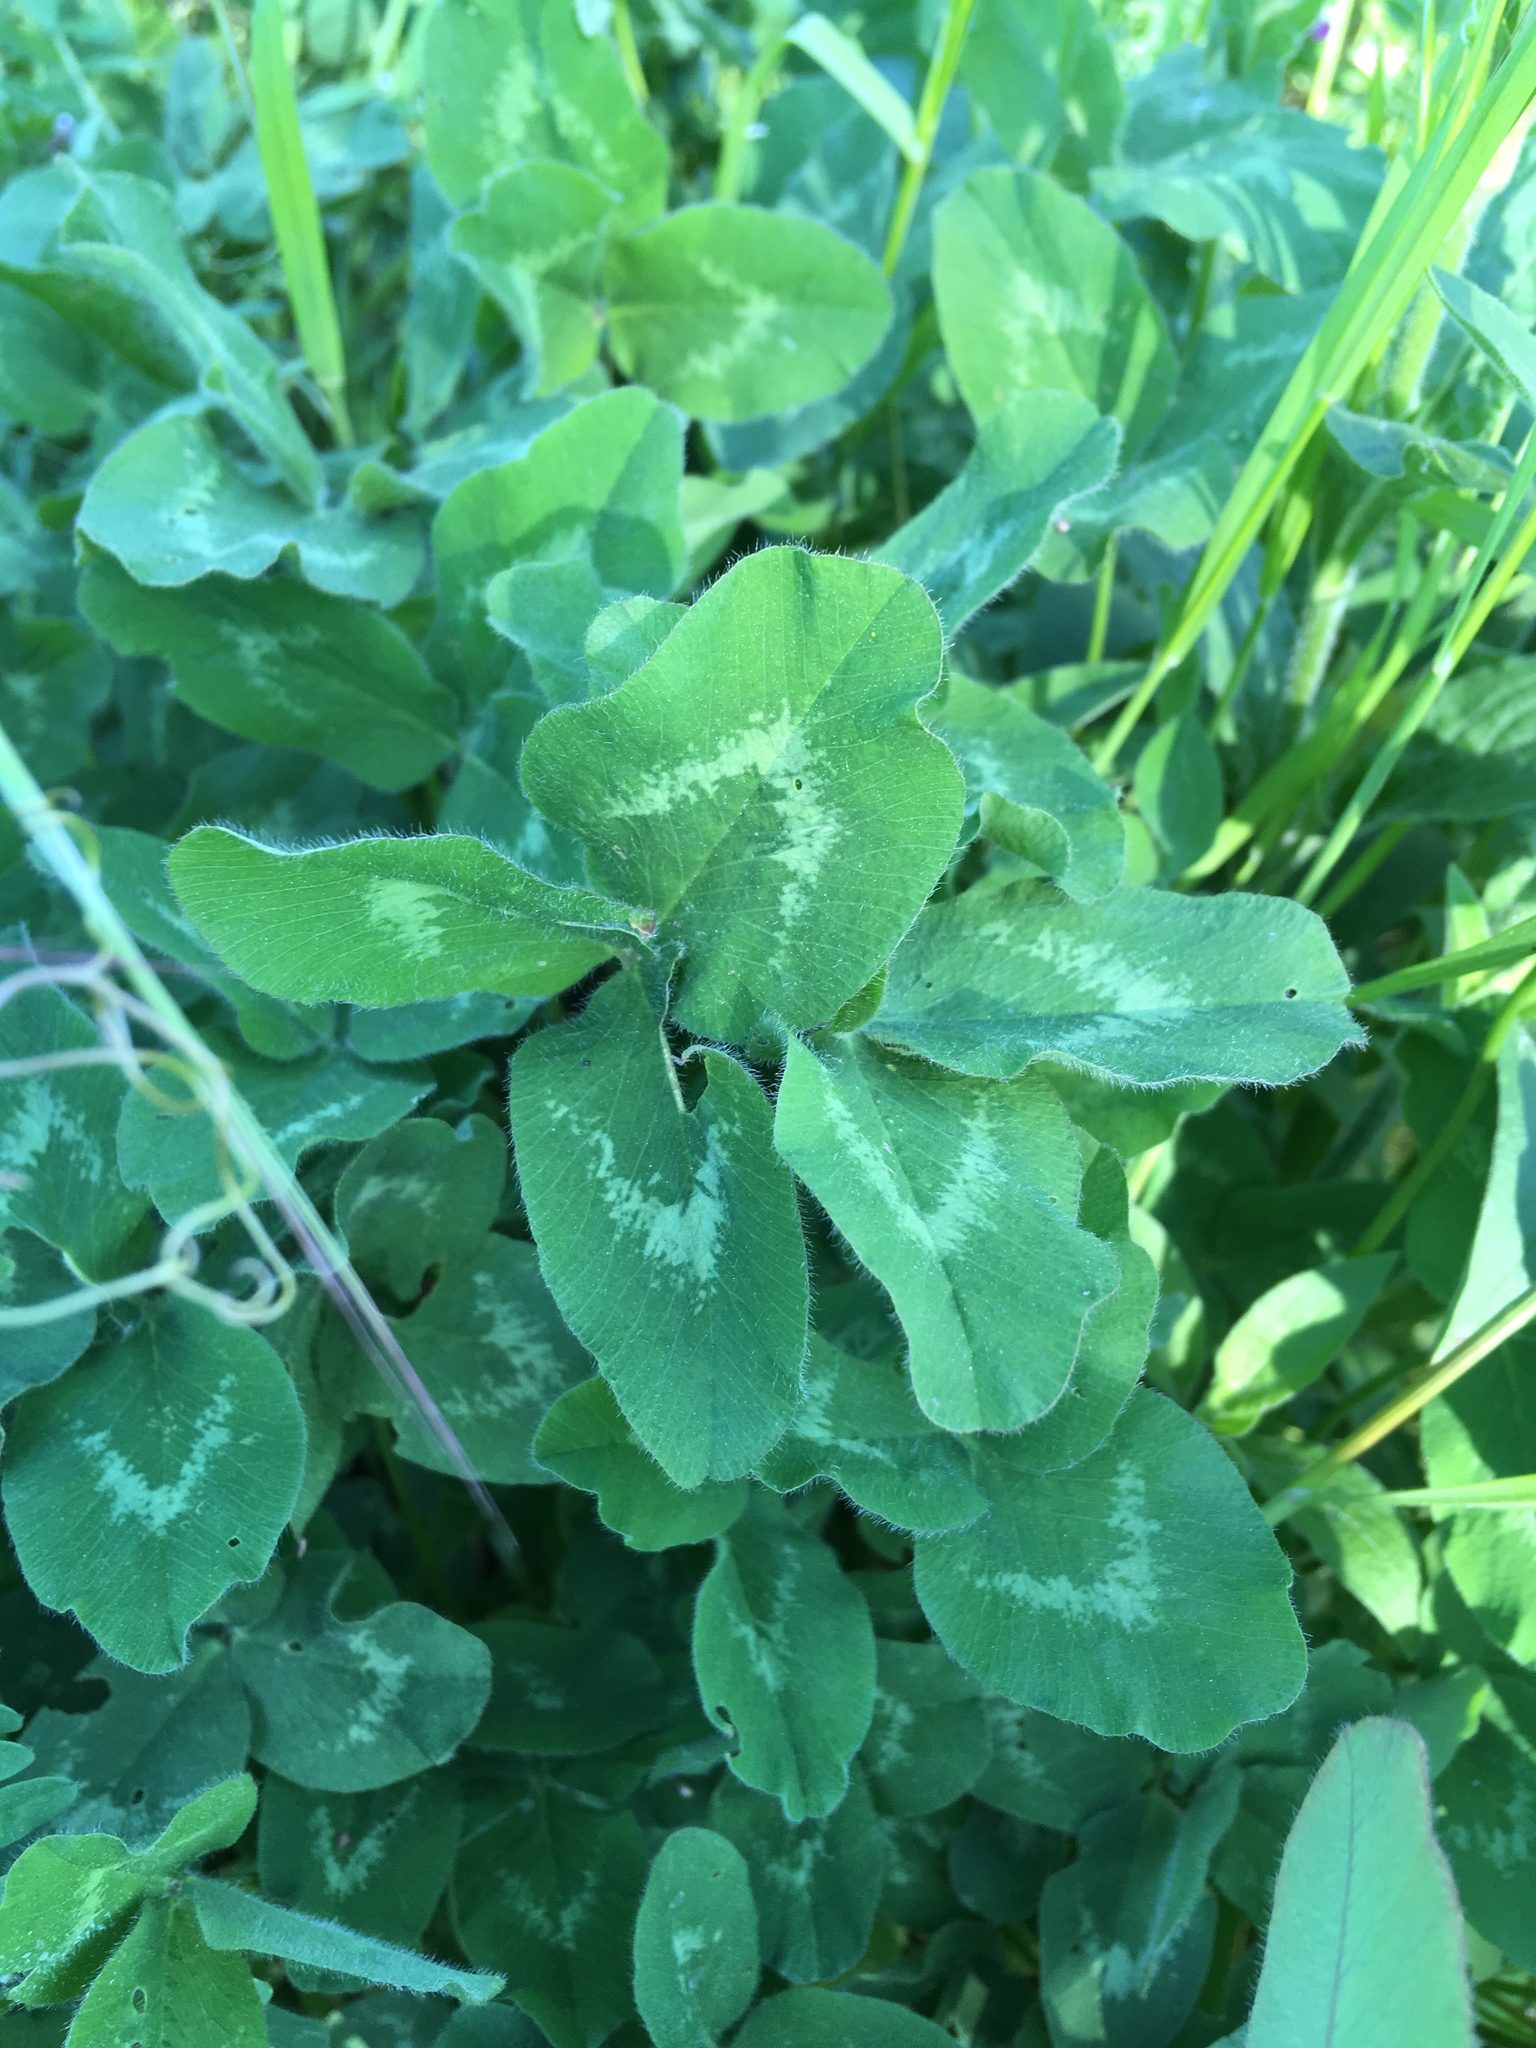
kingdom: Plantae
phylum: Tracheophyta
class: Magnoliopsida
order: Fabales
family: Fabaceae
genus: Trifolium
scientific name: Trifolium pratense
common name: Red clover
